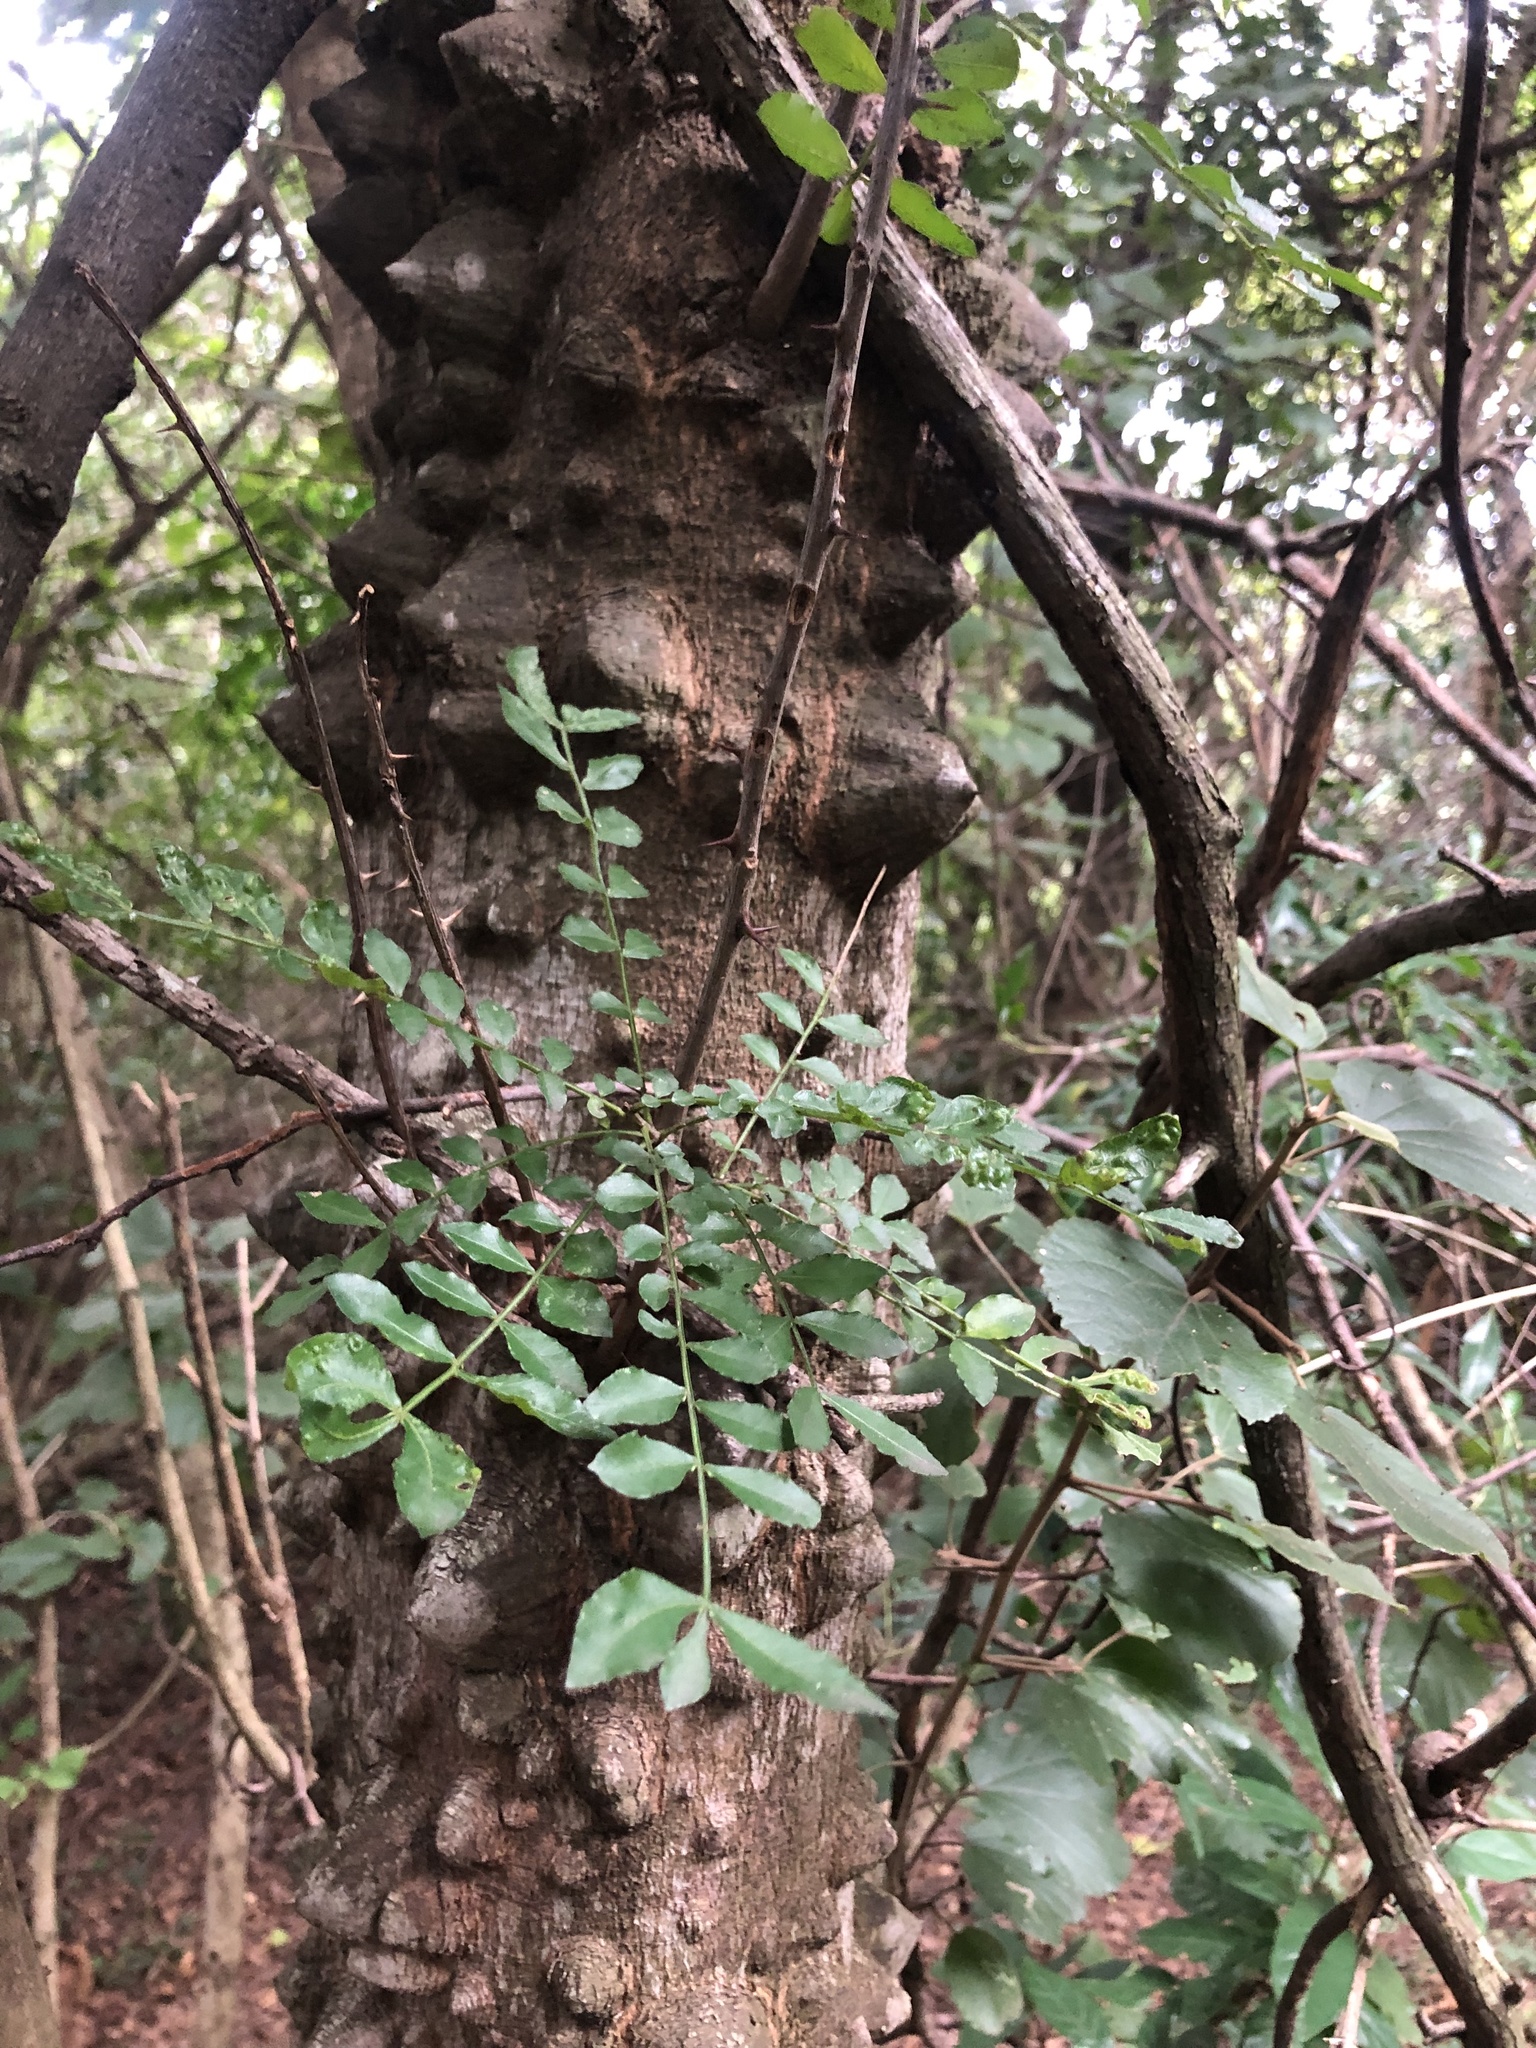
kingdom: Plantae
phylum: Tracheophyta
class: Magnoliopsida
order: Sapindales
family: Rutaceae
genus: Zanthoxylum
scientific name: Zanthoxylum capense
